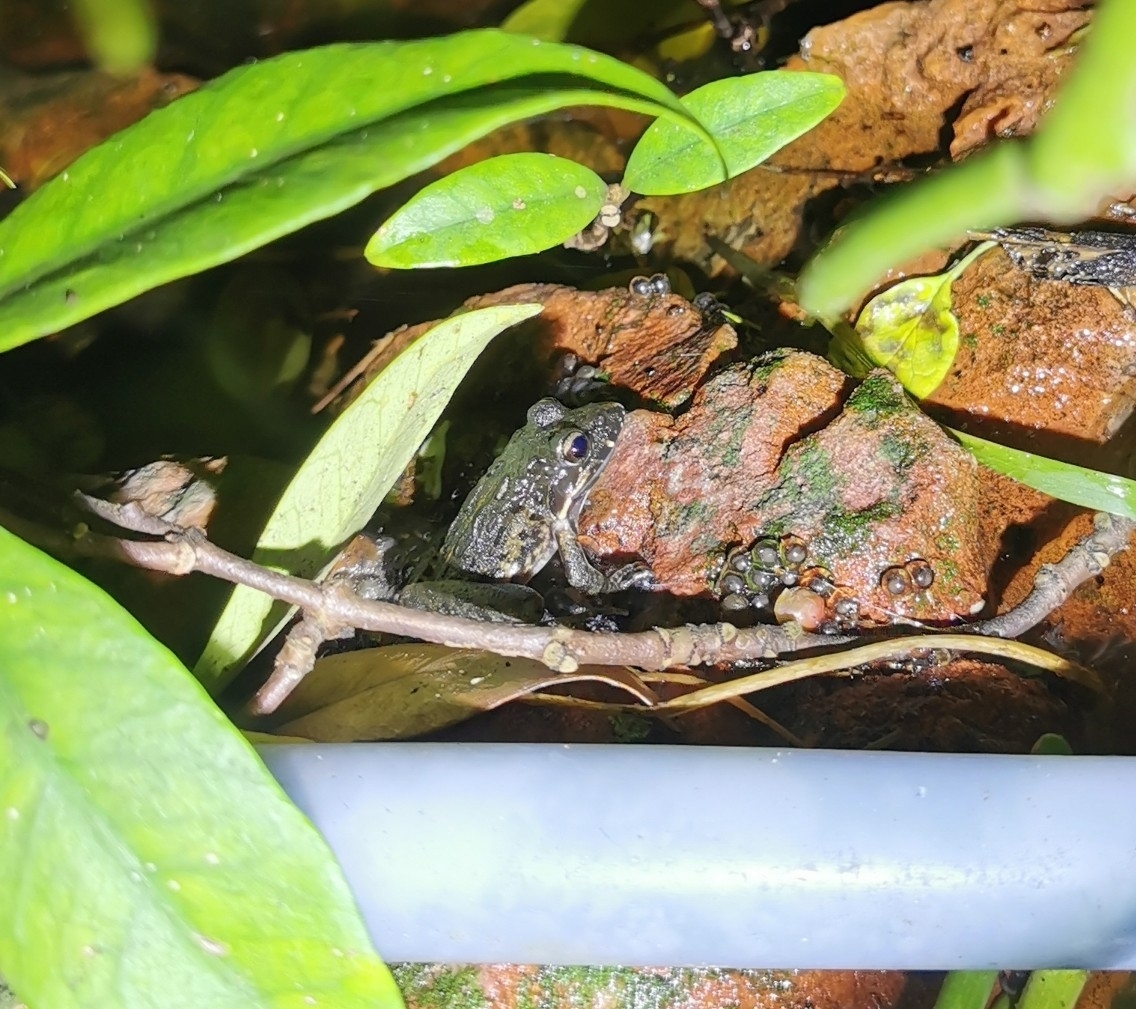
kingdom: Animalia
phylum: Chordata
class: Amphibia
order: Anura
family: Pyxicephalidae
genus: Strongylopus
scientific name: Strongylopus grayii
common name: Gray's stream frog
